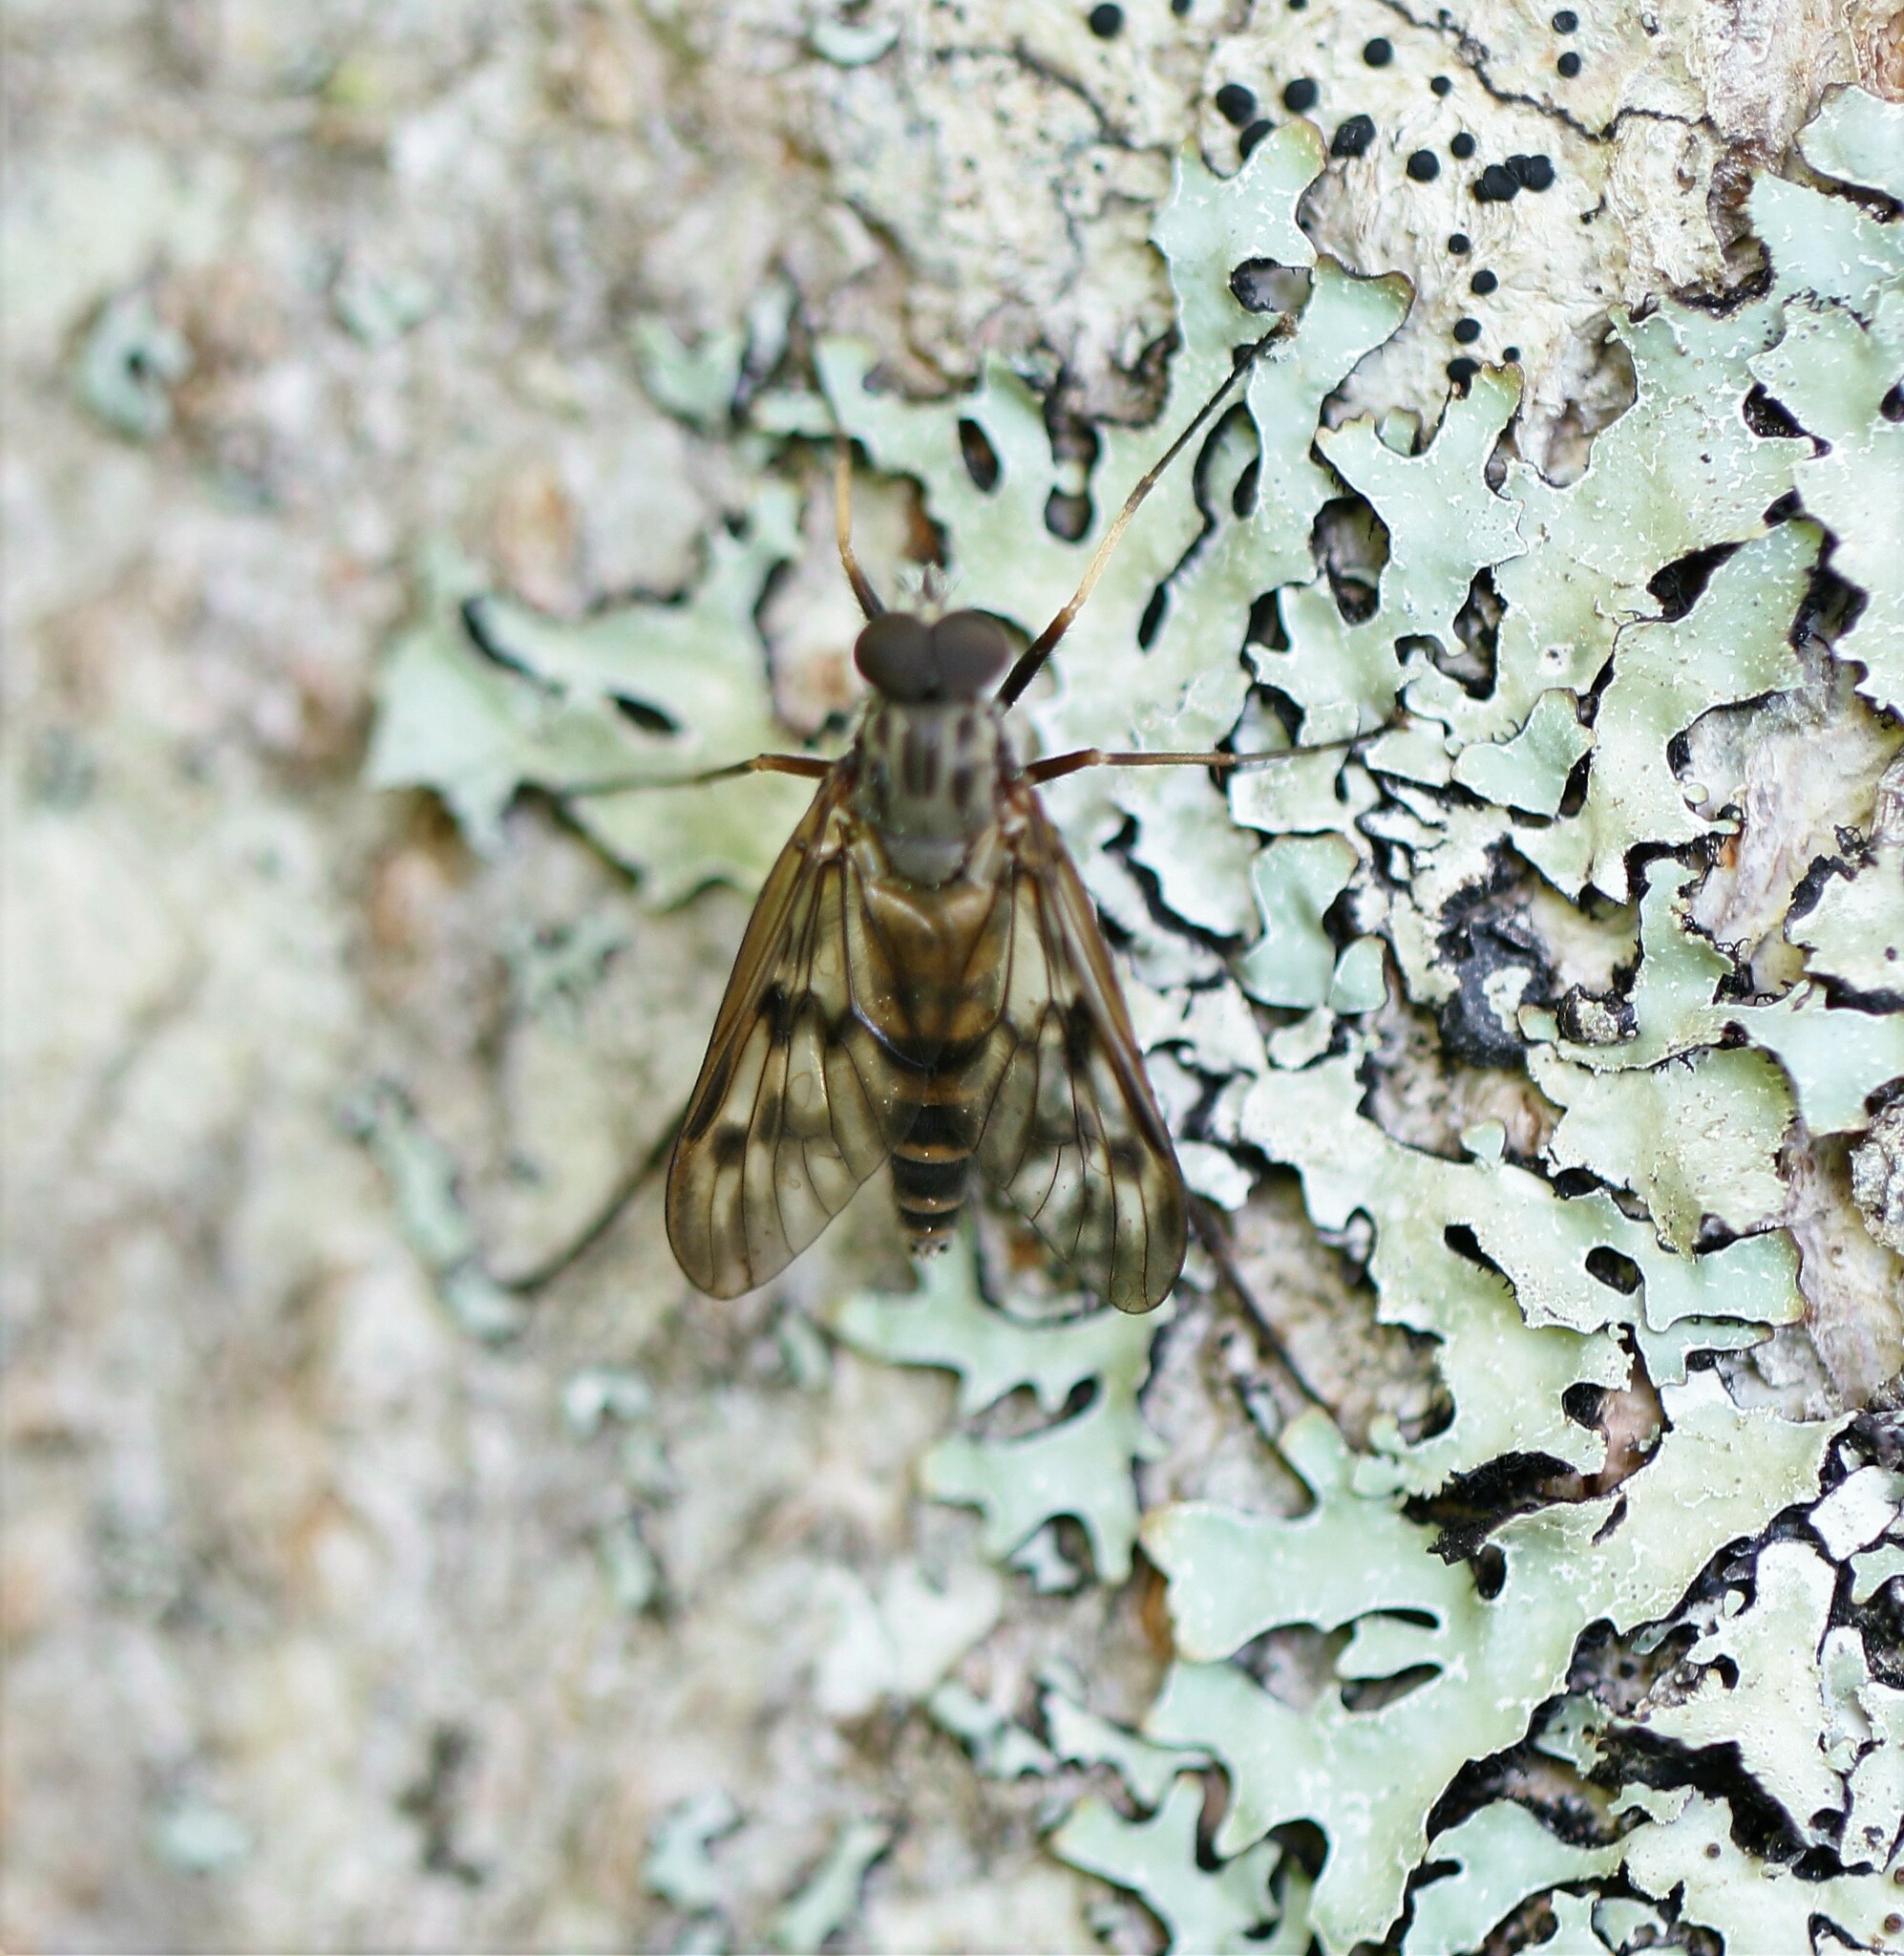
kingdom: Animalia
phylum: Arthropoda
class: Insecta
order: Diptera
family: Rhagionidae
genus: Rhagio
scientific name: Rhagio mystaceus
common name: Common snipe fly
